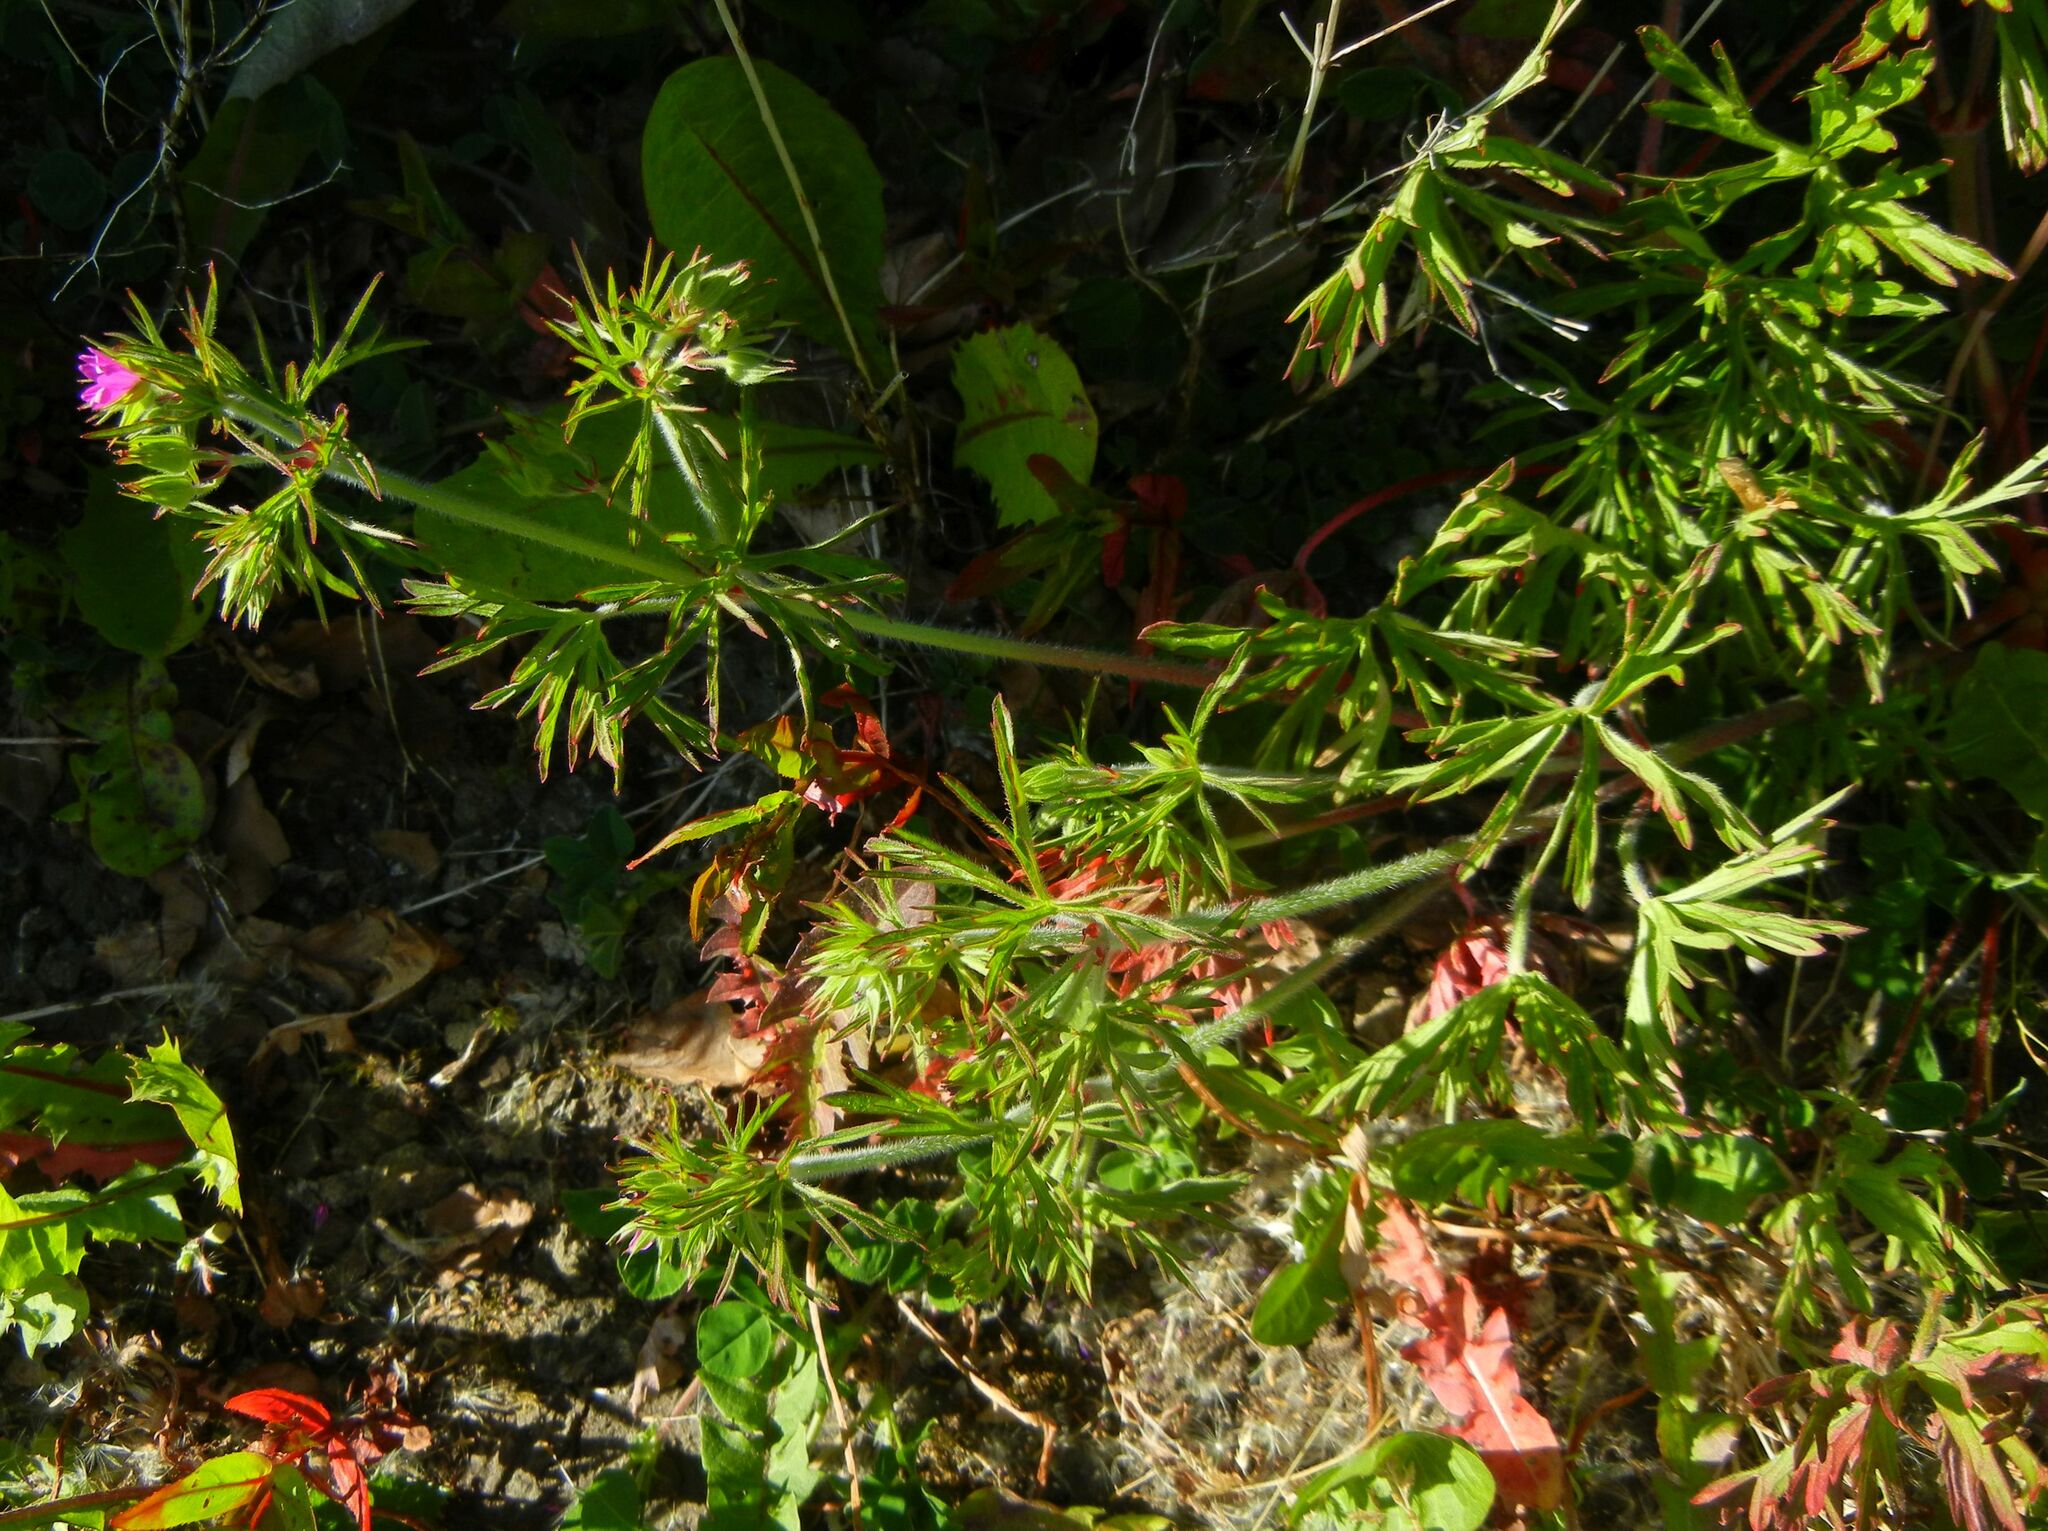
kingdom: Plantae
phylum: Tracheophyta
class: Magnoliopsida
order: Geraniales
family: Geraniaceae
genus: Geranium
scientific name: Geranium dissectum
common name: Cut-leaved crane's-bill
